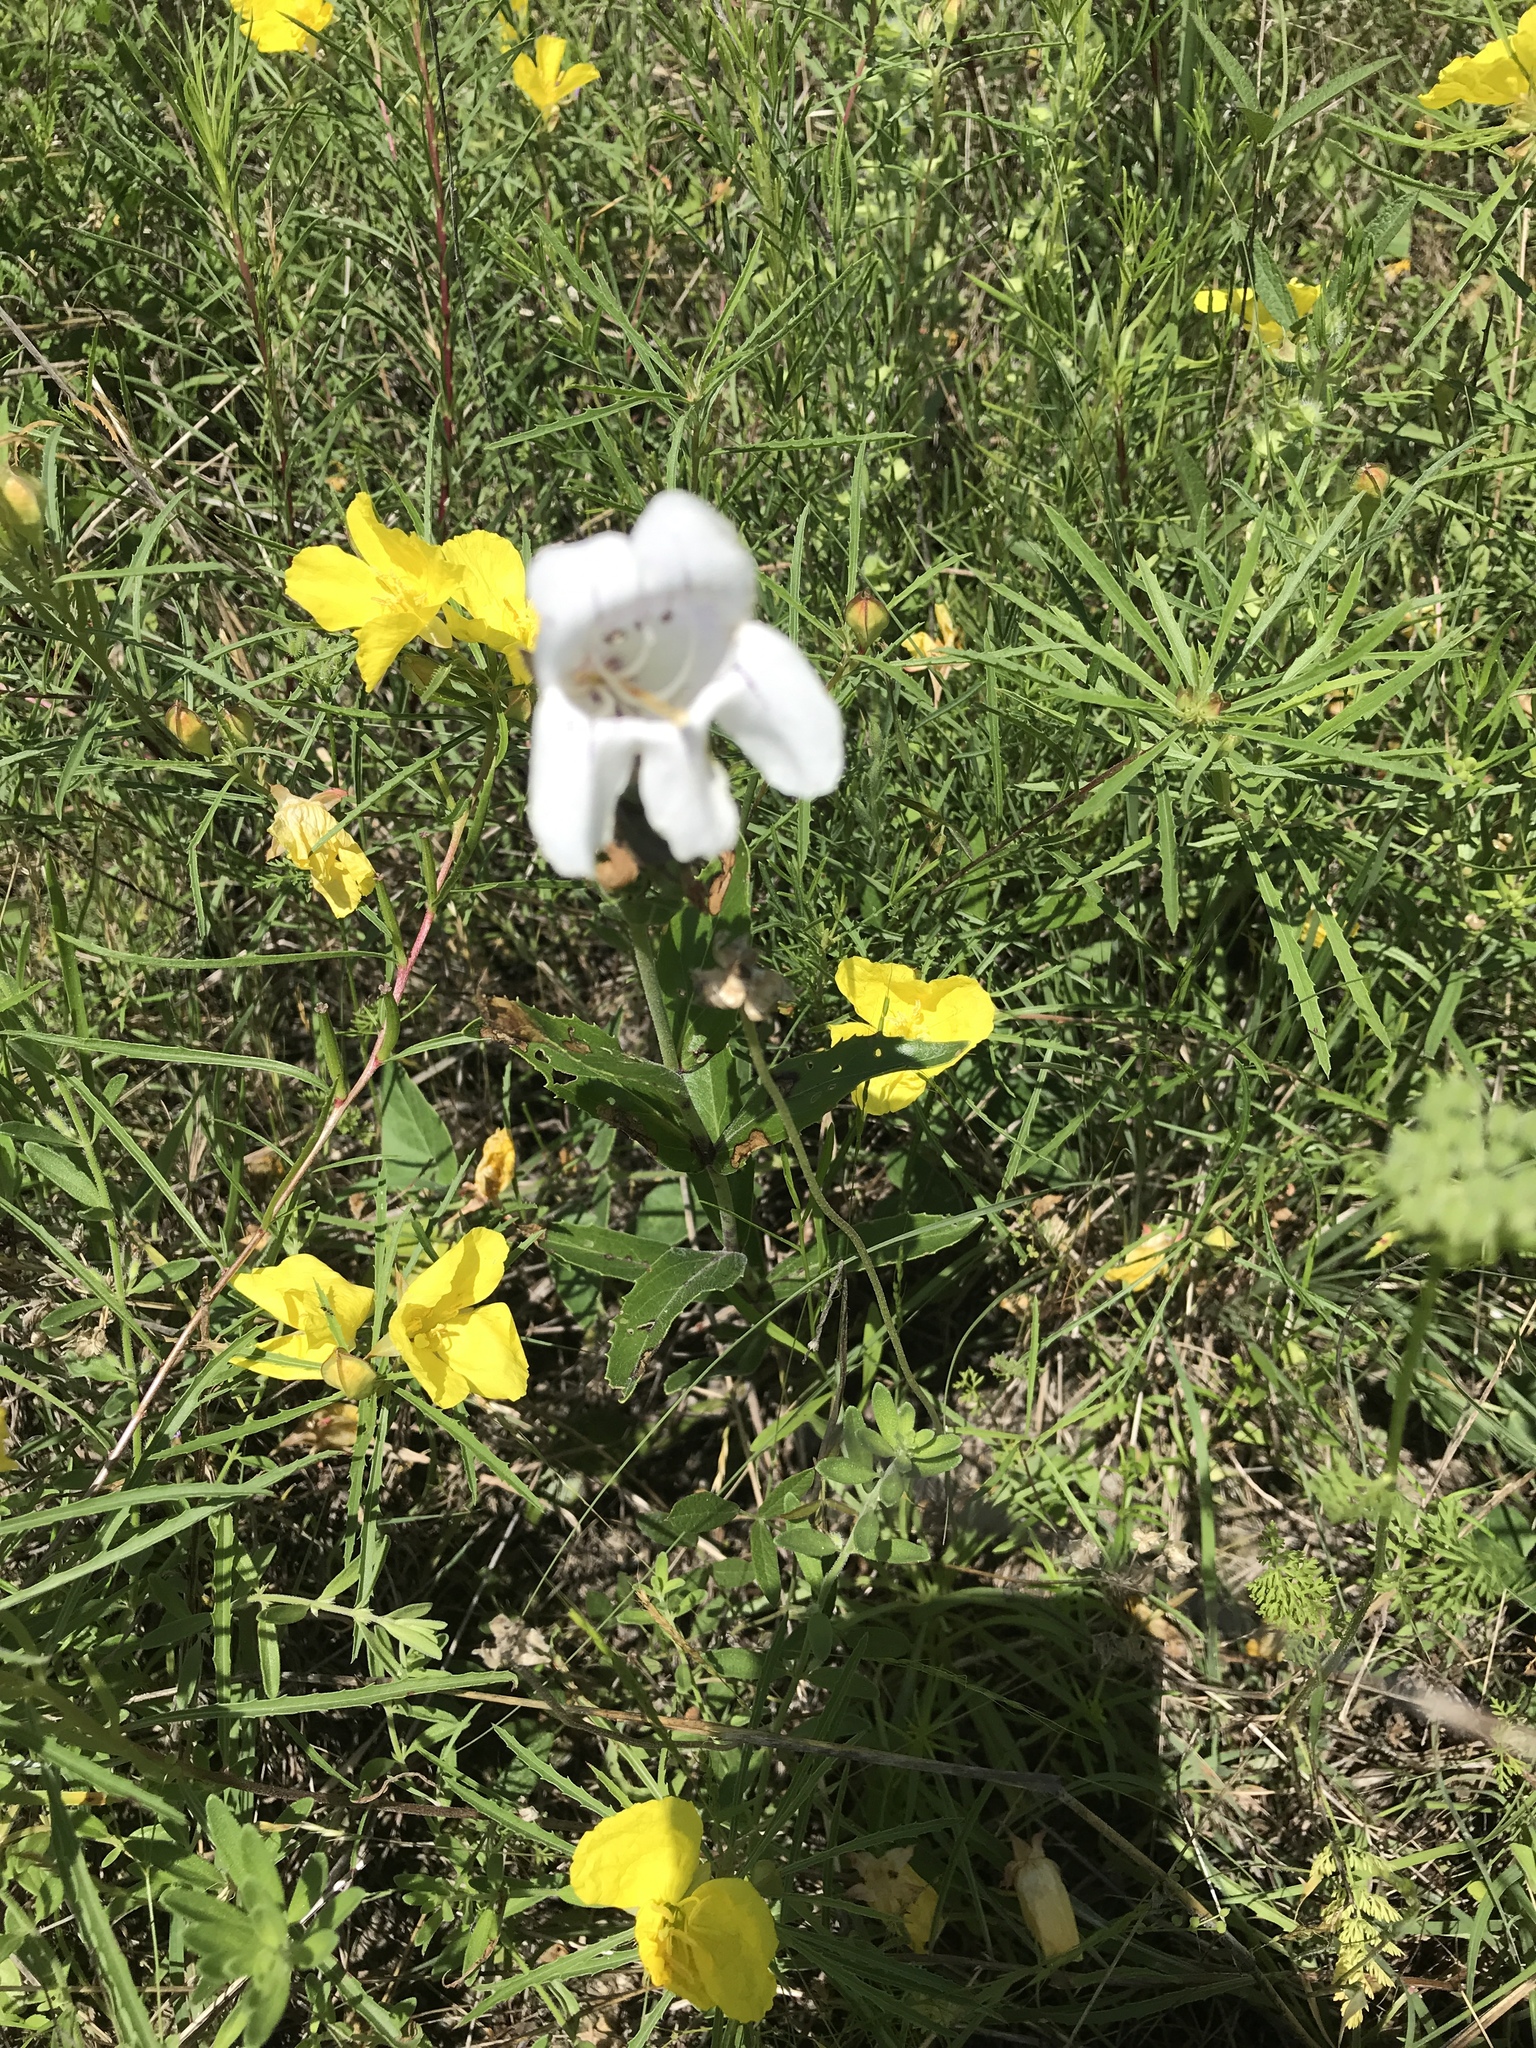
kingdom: Plantae
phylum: Tracheophyta
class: Magnoliopsida
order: Lamiales
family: Plantaginaceae
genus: Penstemon
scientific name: Penstemon cobaea
